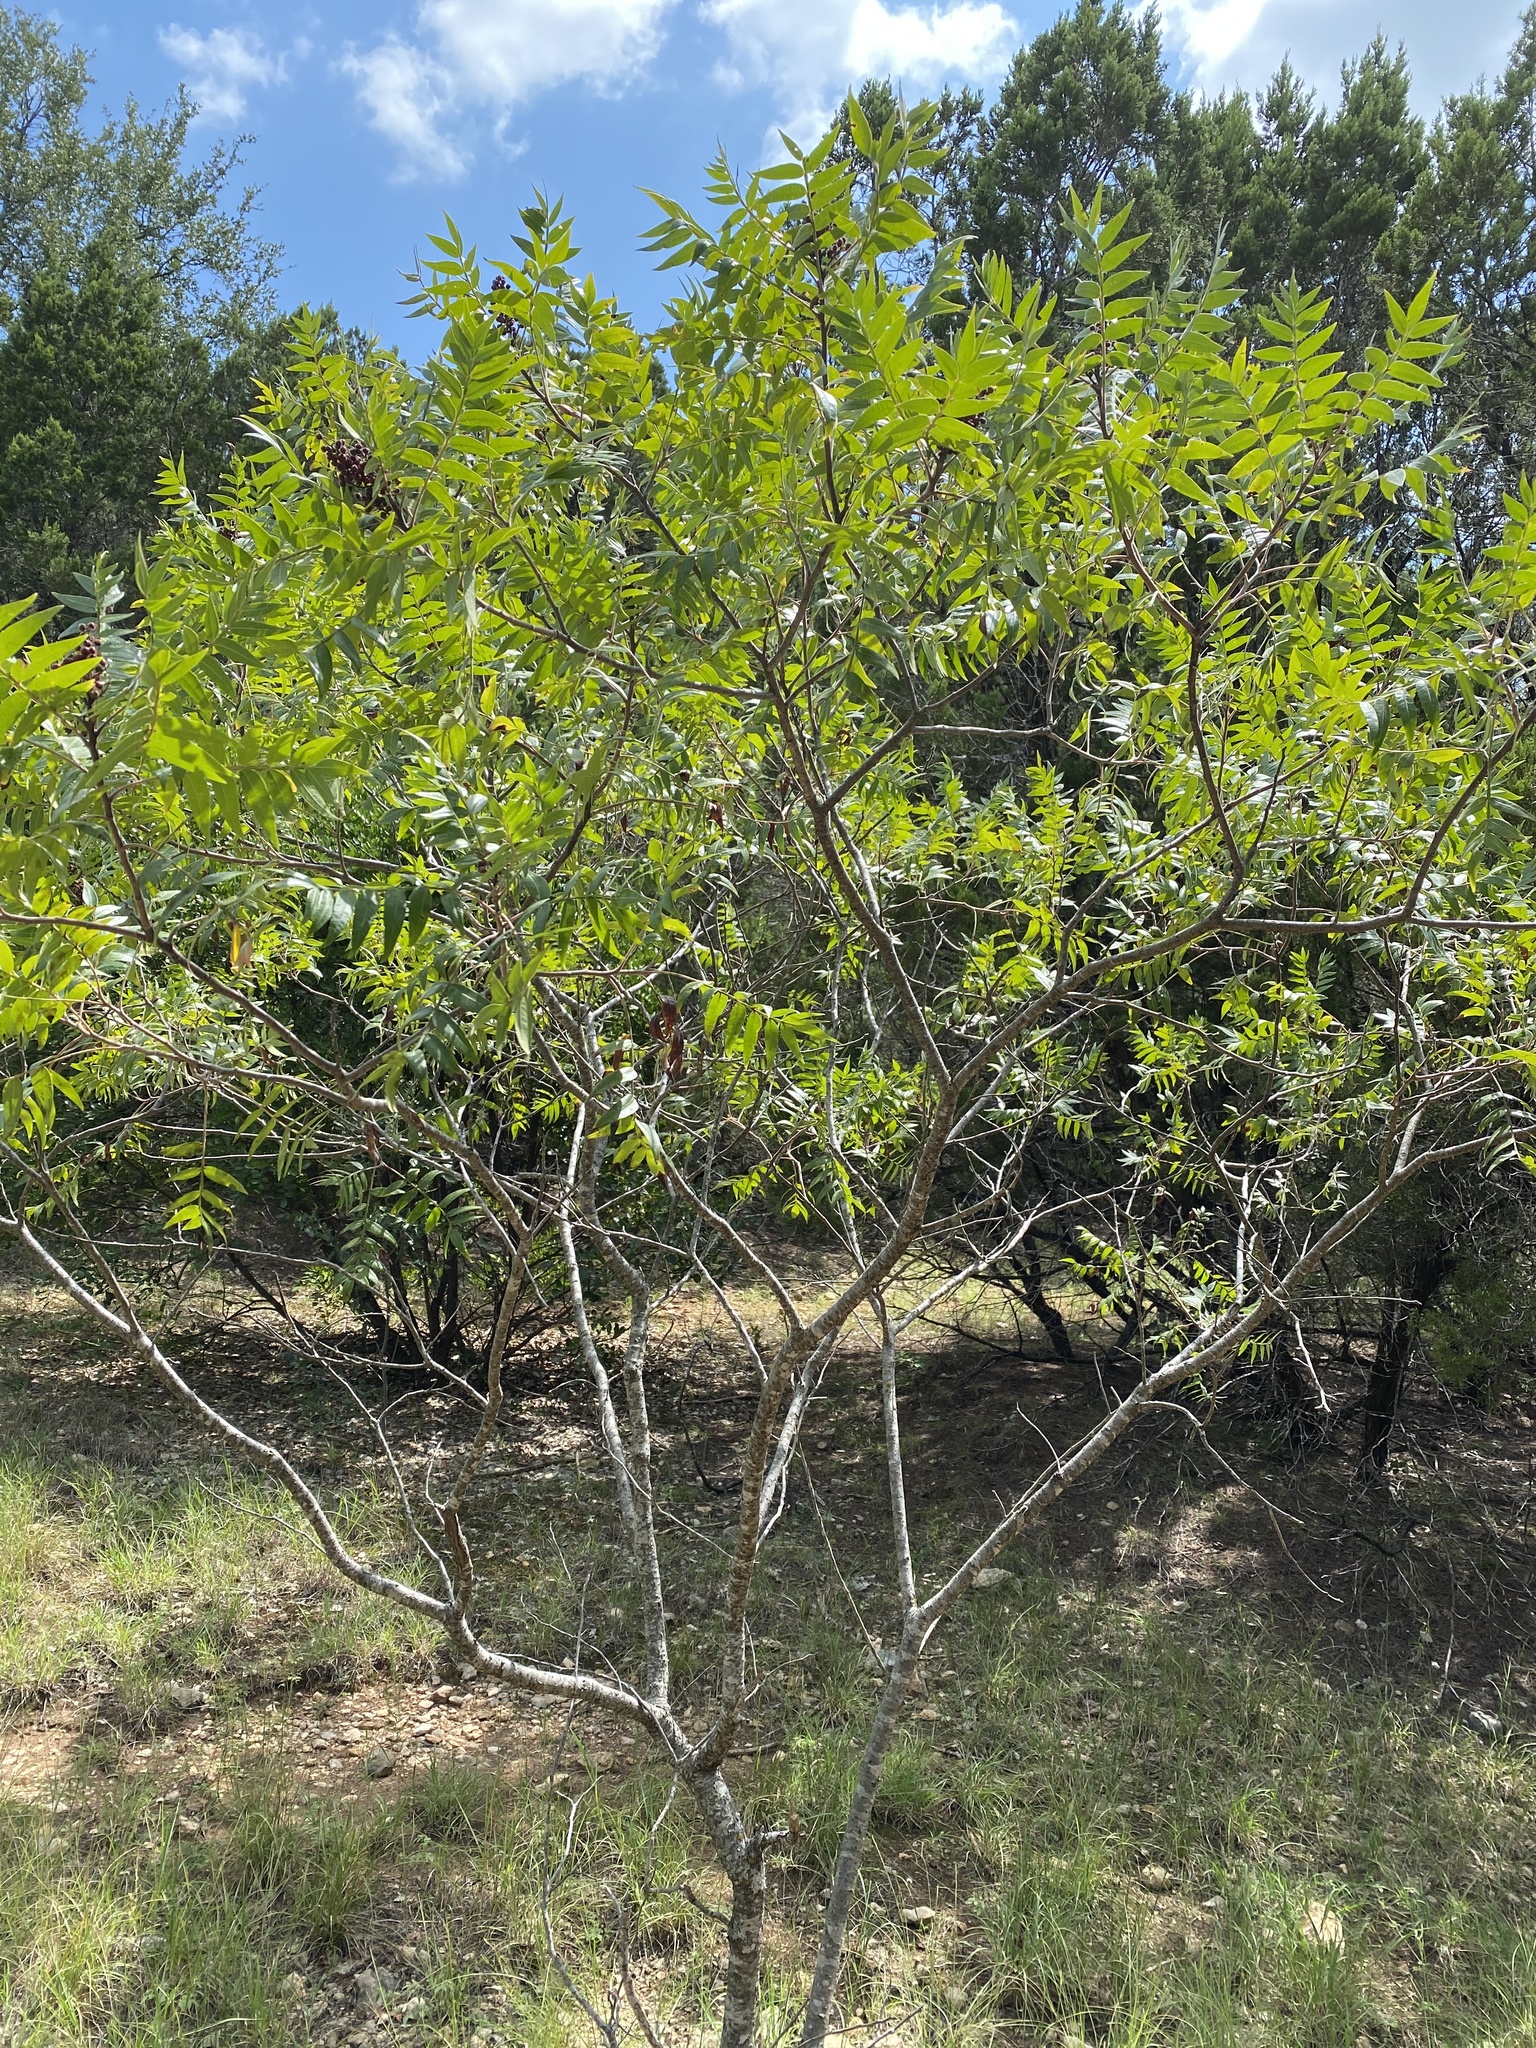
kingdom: Plantae
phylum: Tracheophyta
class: Magnoliopsida
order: Sapindales
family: Anacardiaceae
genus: Rhus
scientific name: Rhus lanceolata
